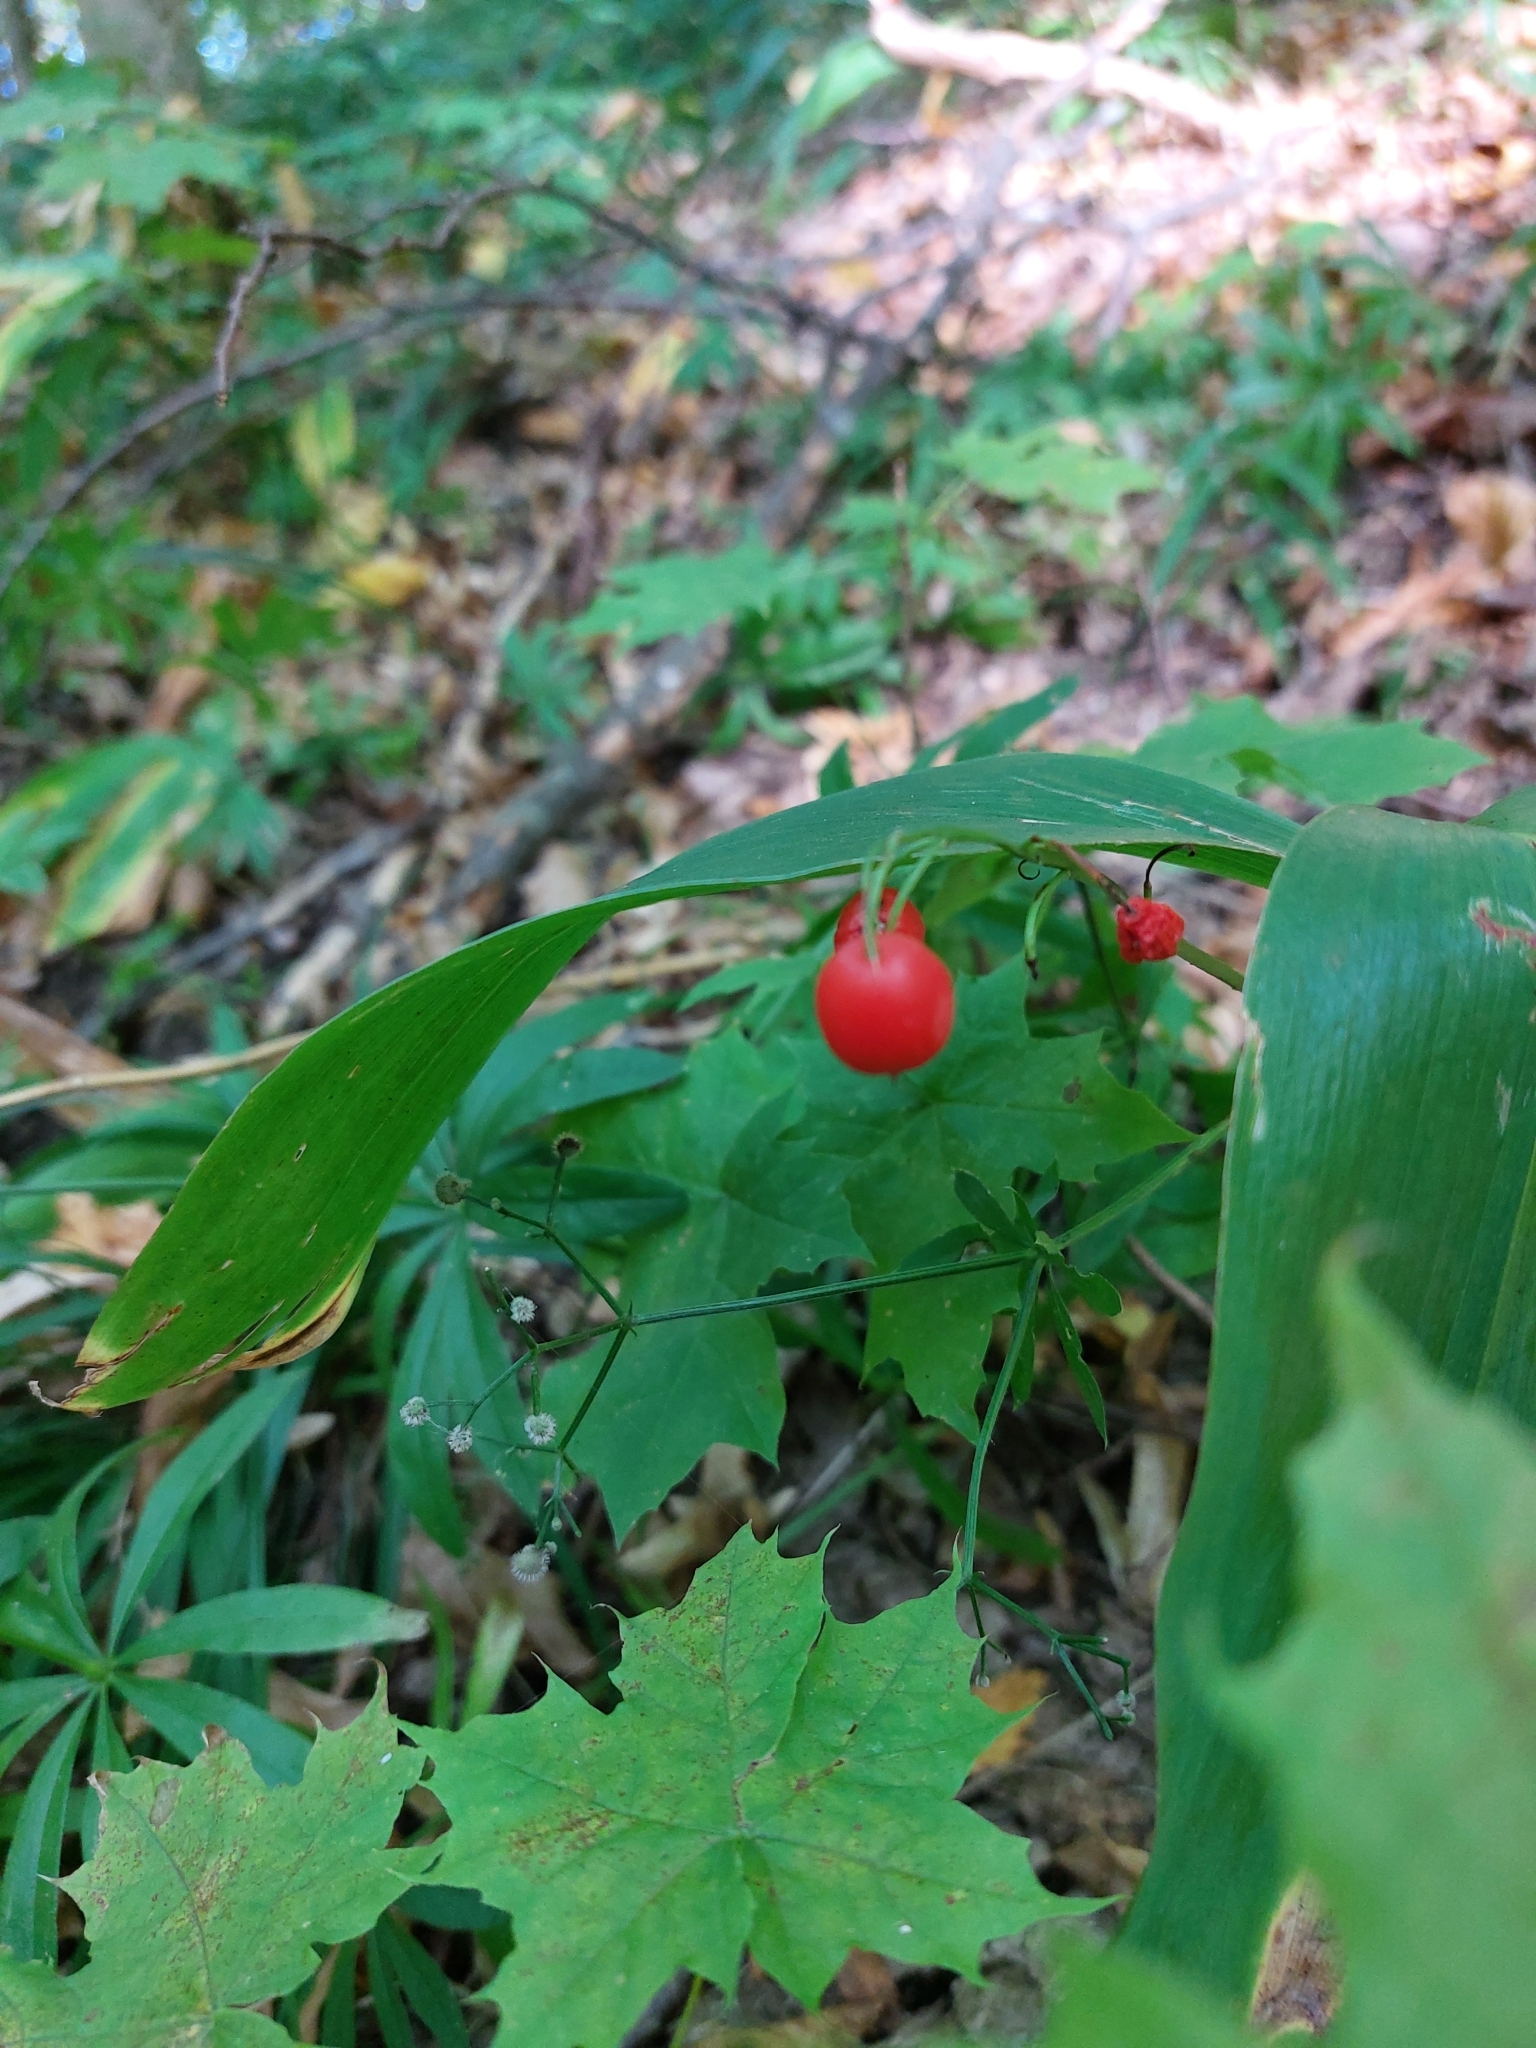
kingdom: Plantae
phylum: Tracheophyta
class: Liliopsida
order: Asparagales
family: Asparagaceae
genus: Convallaria
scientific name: Convallaria majalis
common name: Lily-of-the-valley
